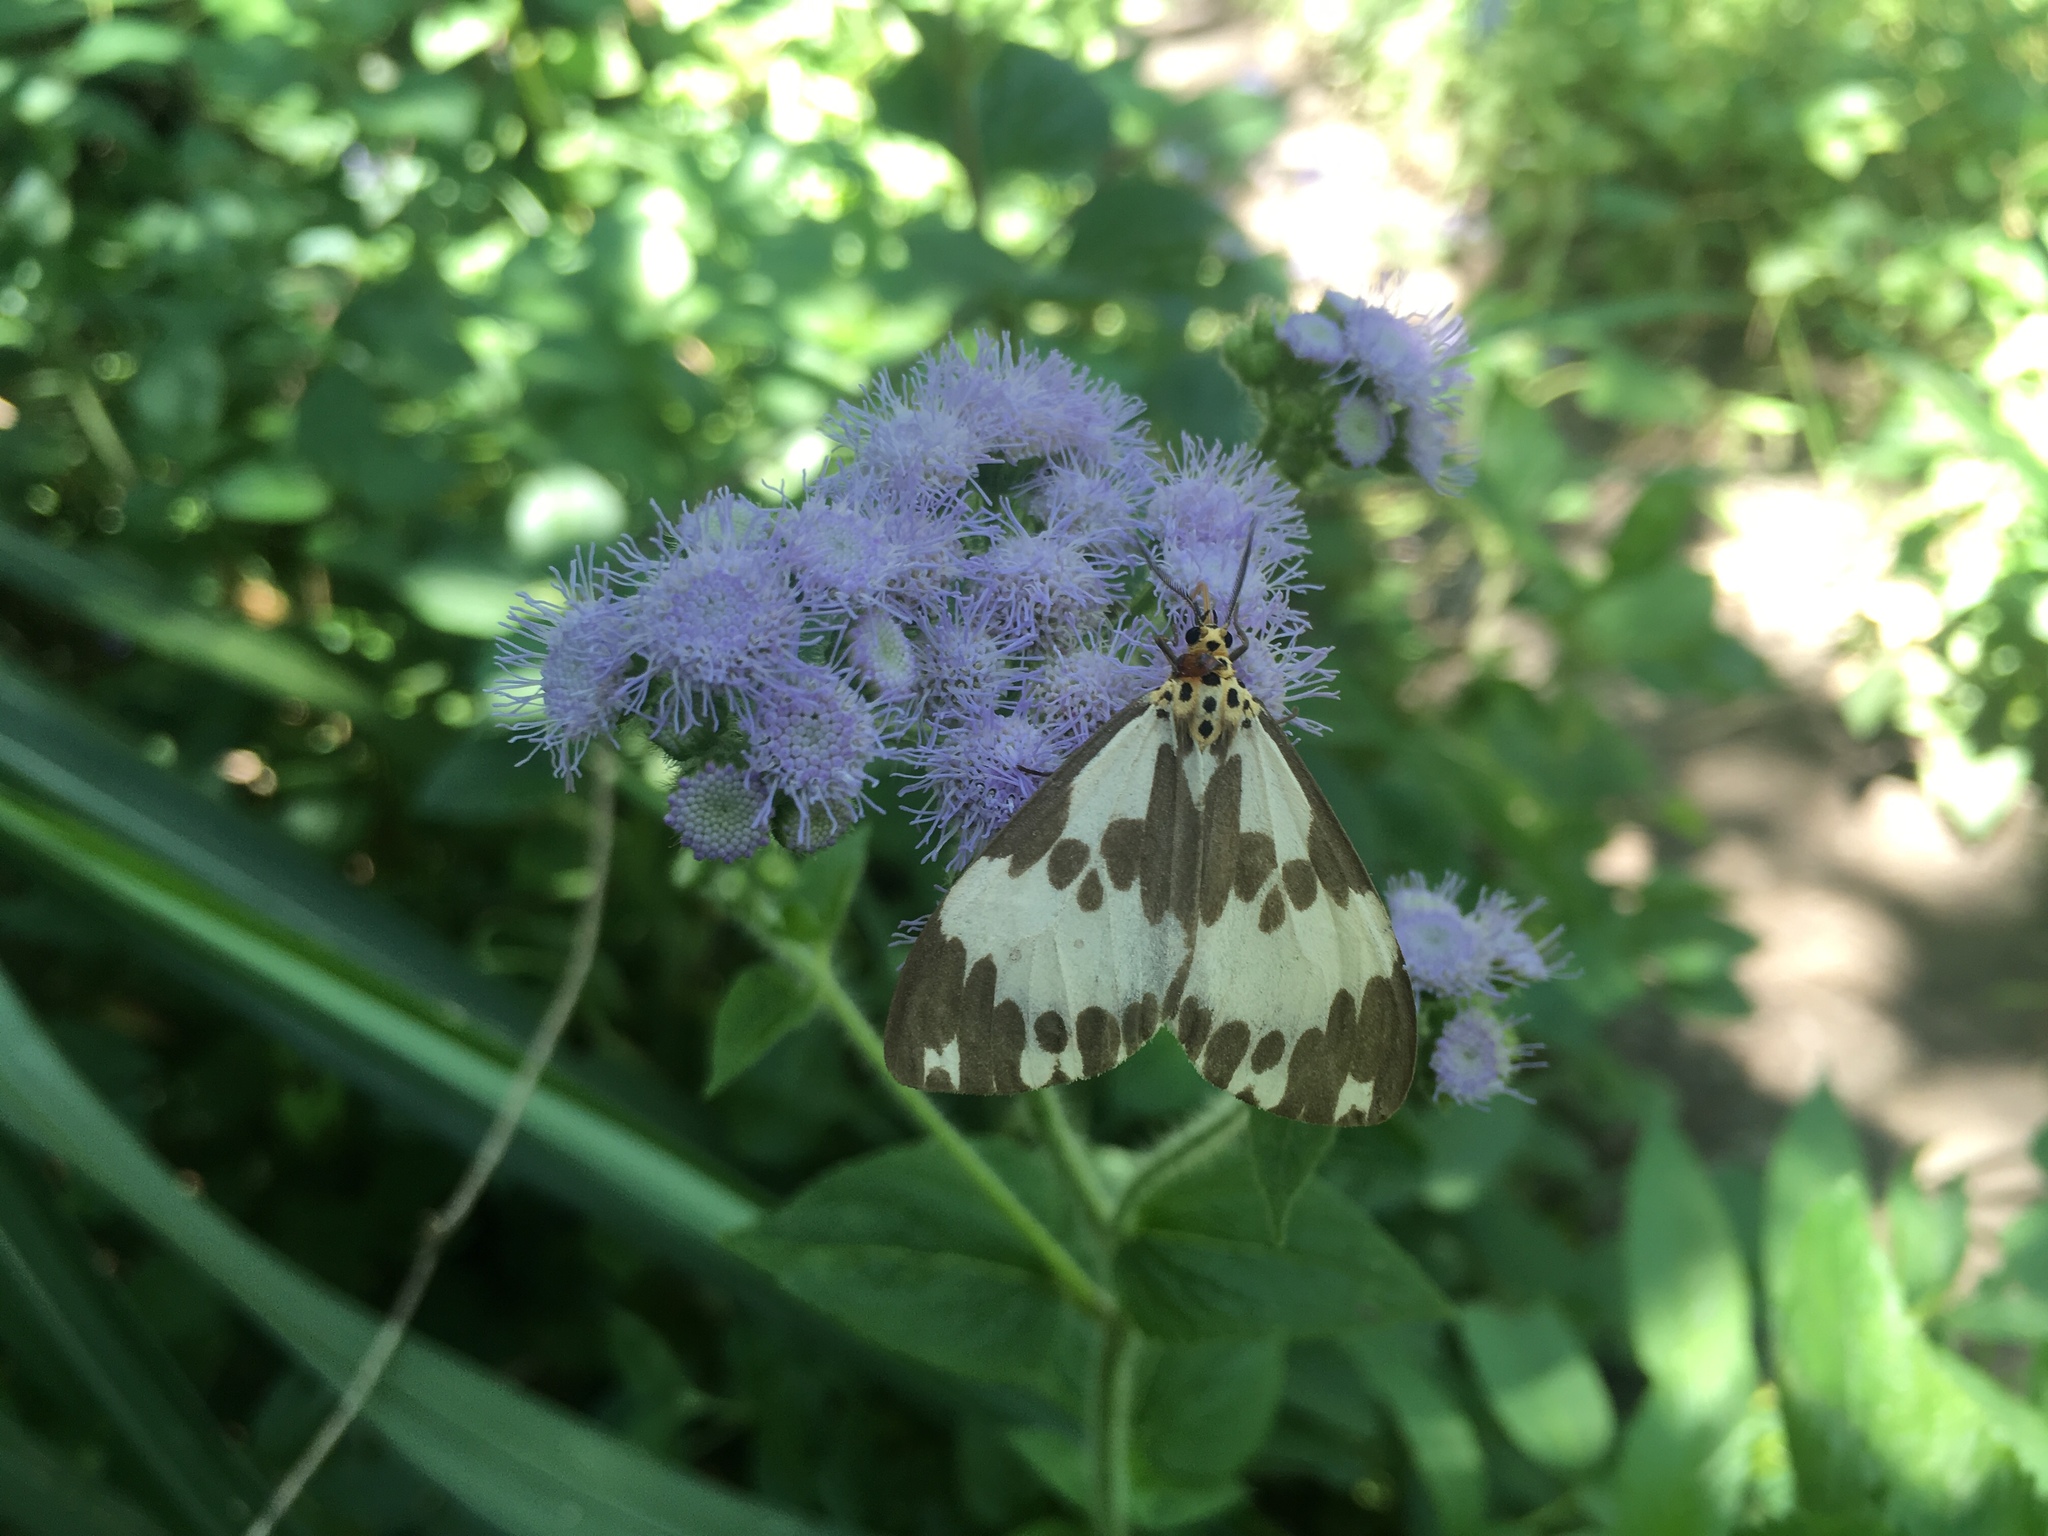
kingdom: Animalia
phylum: Arthropoda
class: Insecta
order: Lepidoptera
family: Erebidae
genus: Nyctemera
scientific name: Nyctemera carissima
